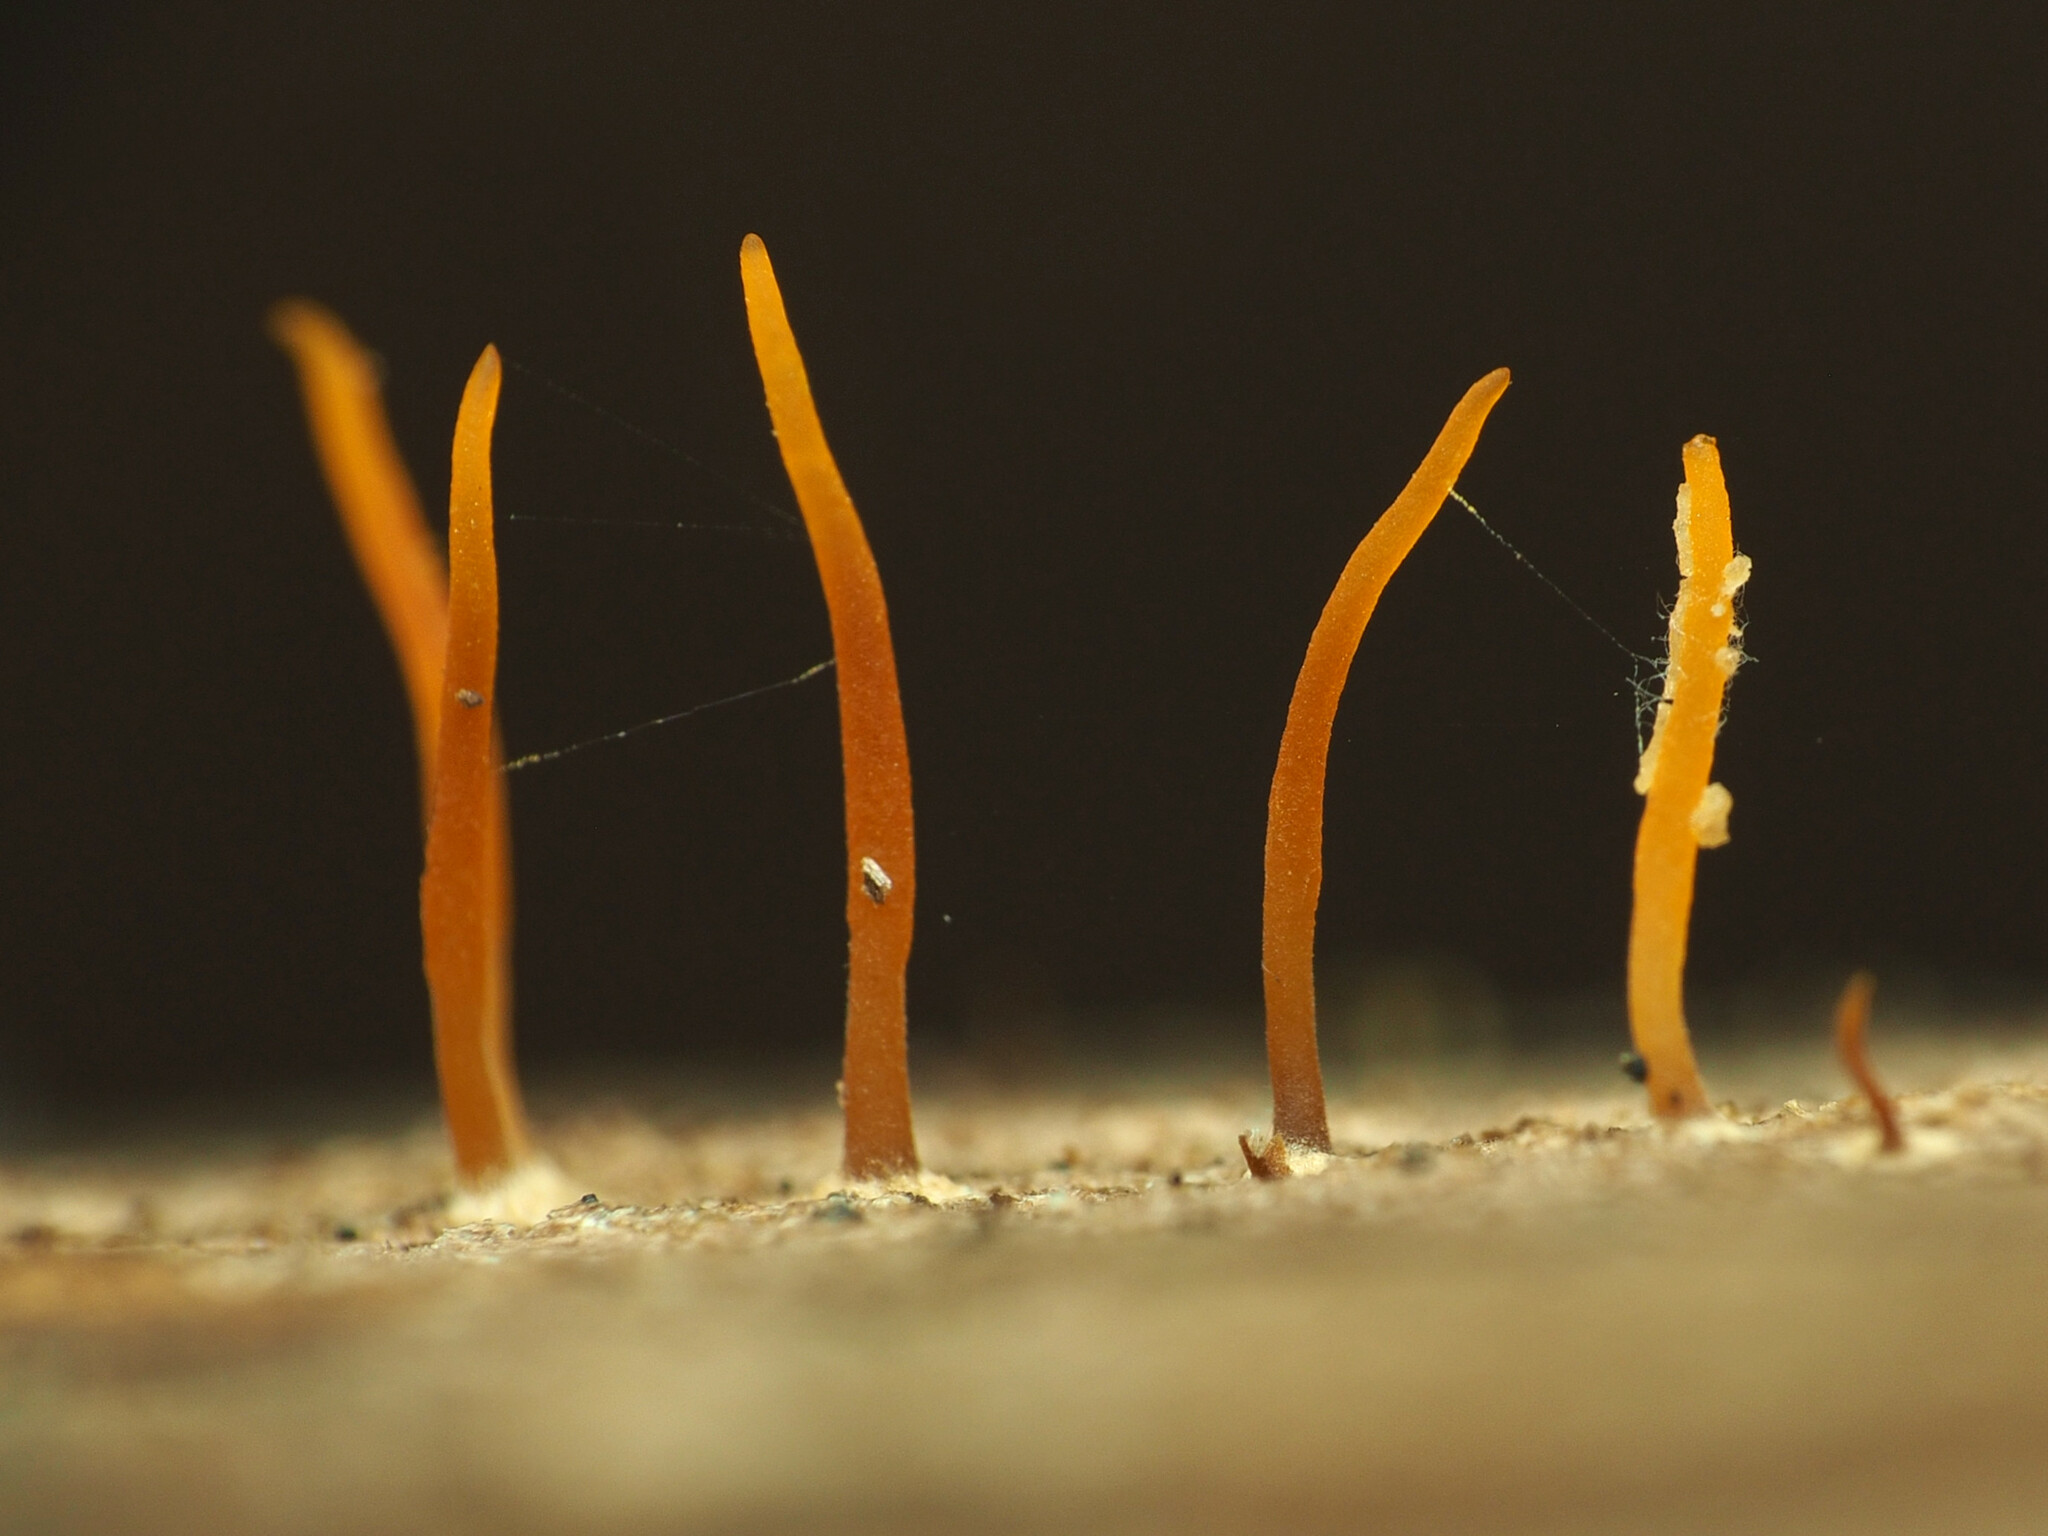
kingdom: Fungi
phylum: Basidiomycota
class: Dacrymycetes
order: Dacrymycetales
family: Dacrymycetaceae
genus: Calocera
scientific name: Calocera cornea
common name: Small stagshorn
